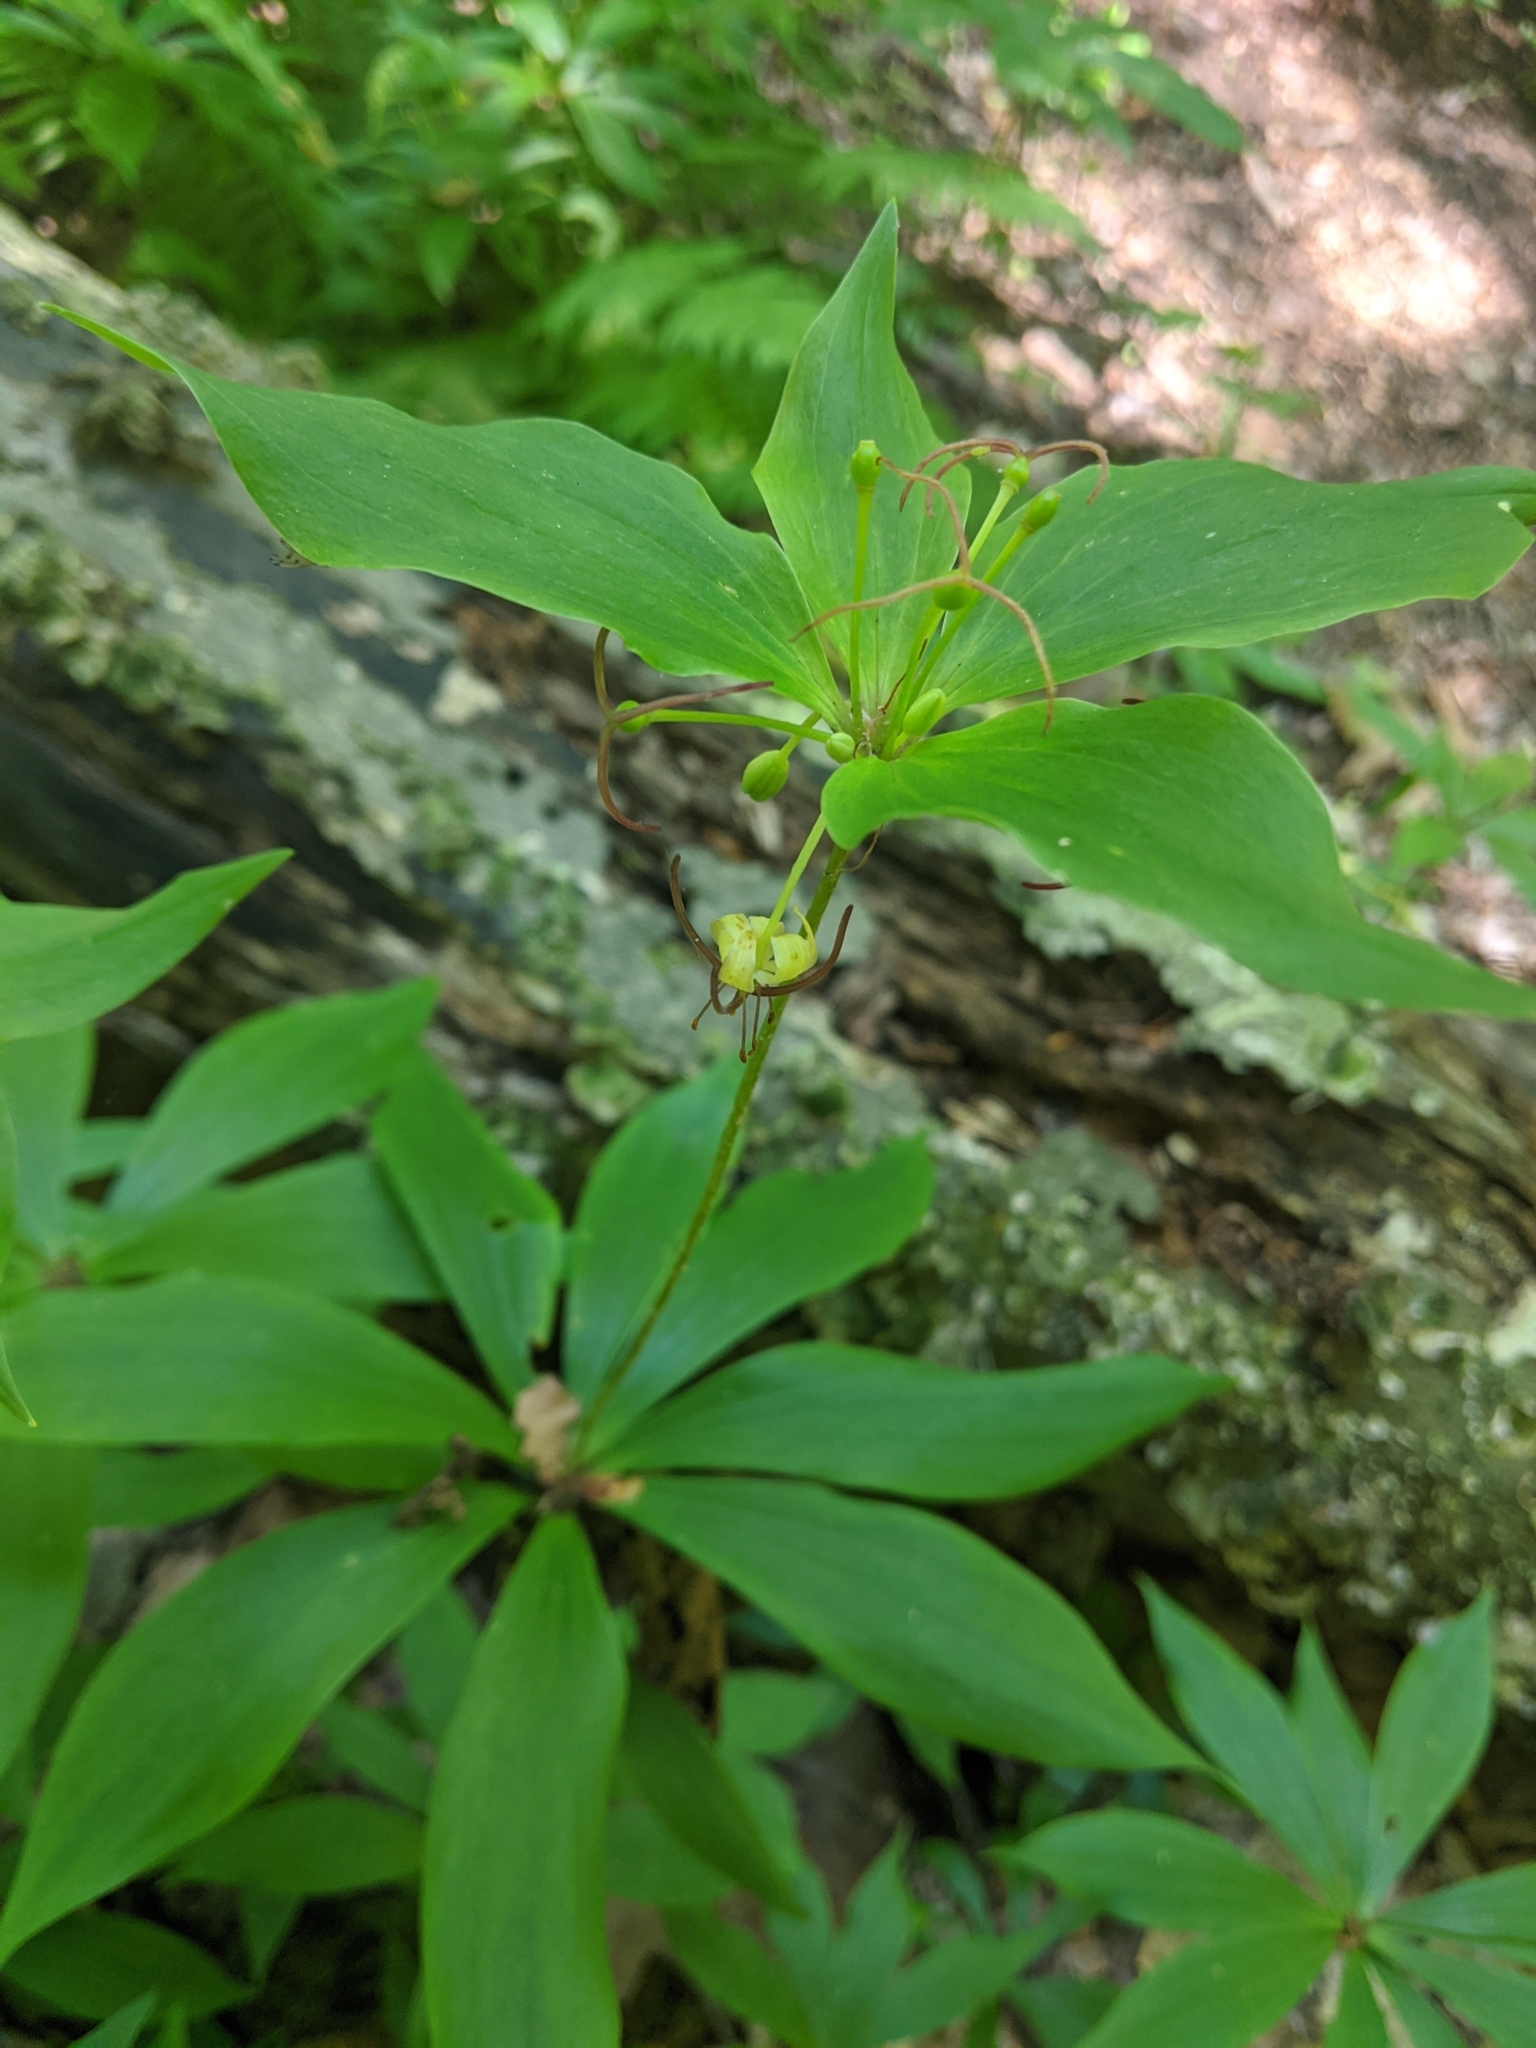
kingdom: Plantae
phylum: Tracheophyta
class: Liliopsida
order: Liliales
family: Liliaceae
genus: Medeola
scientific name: Medeola virginiana
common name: Indian cucumber-root
